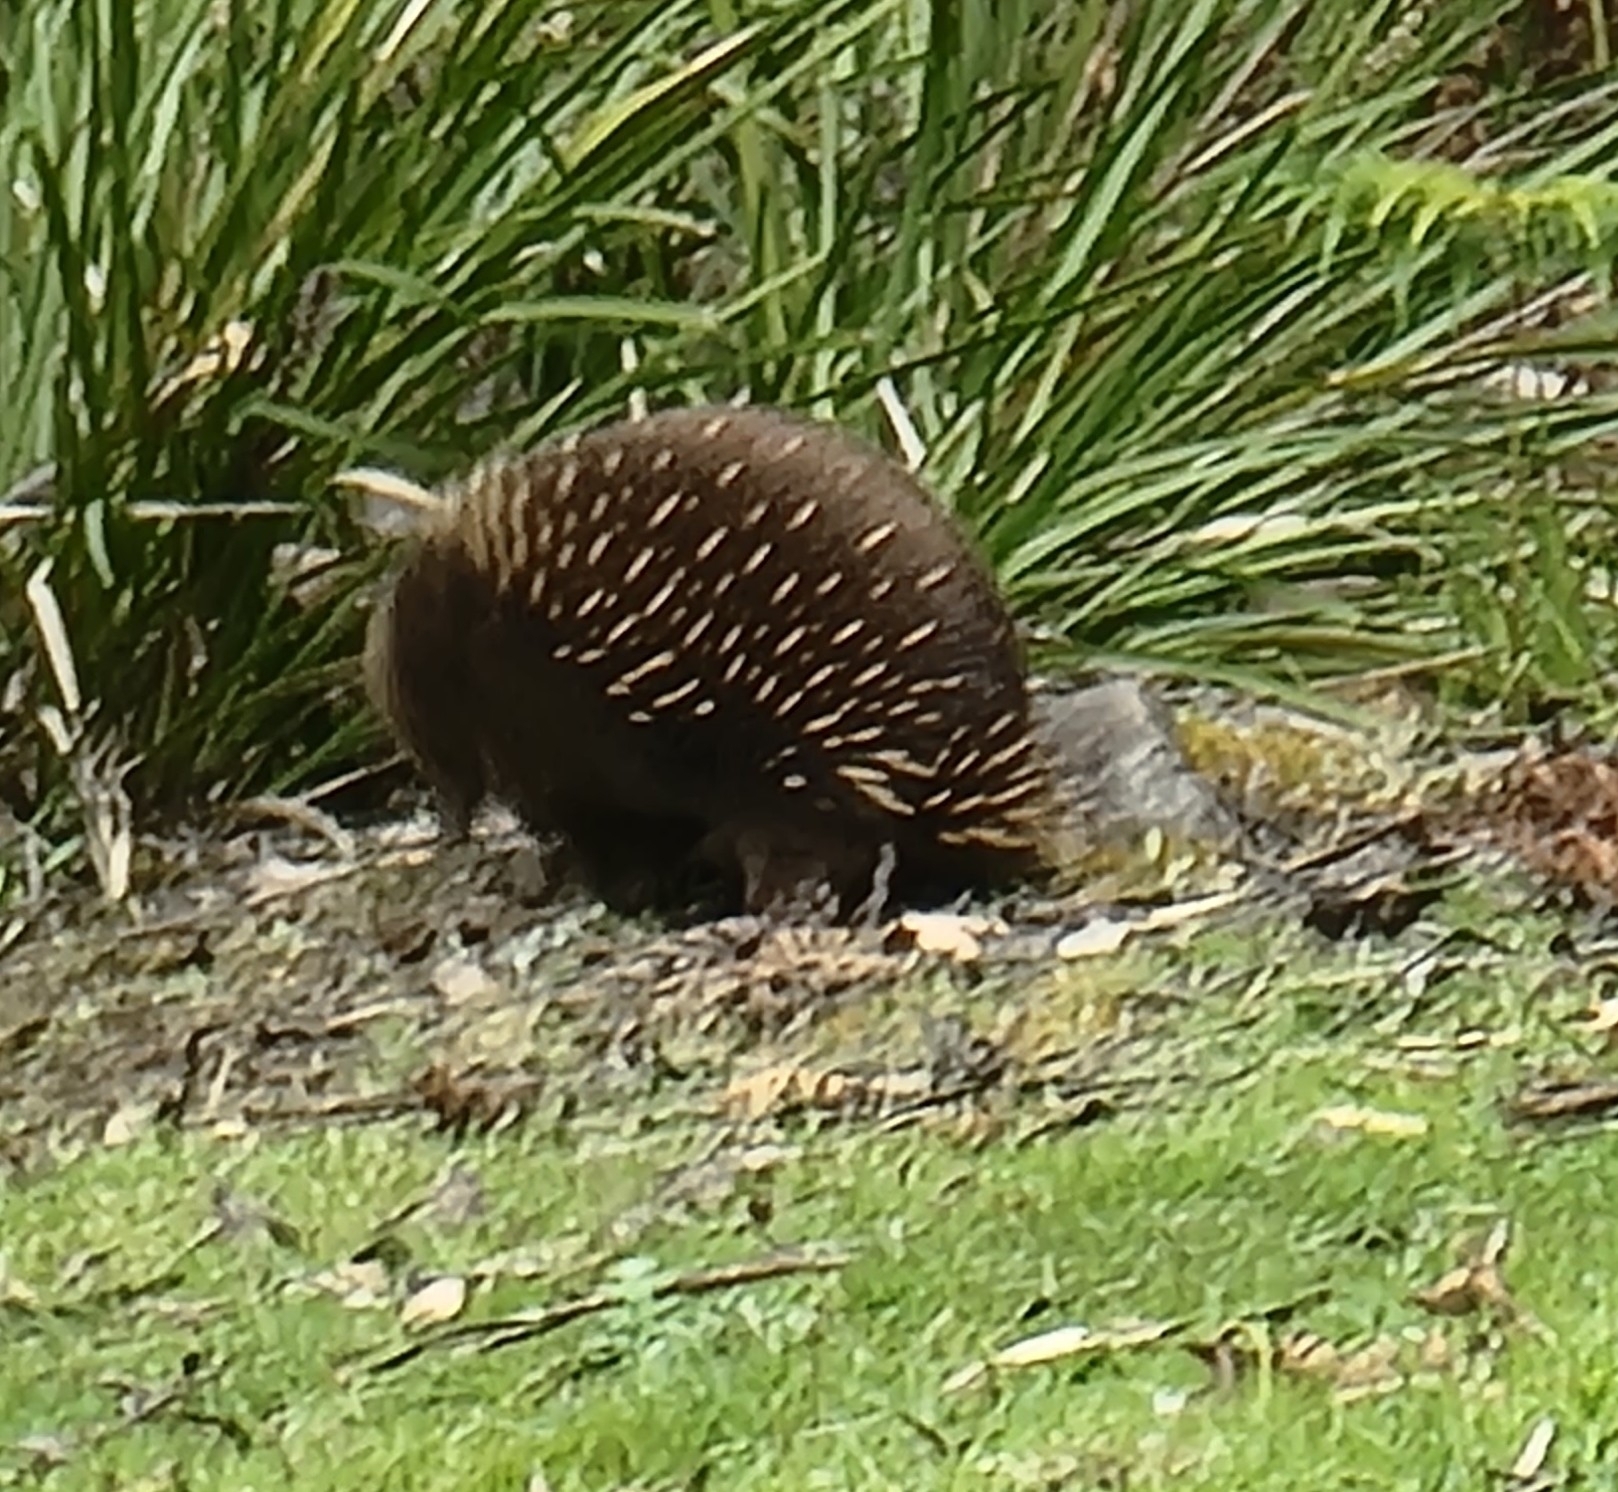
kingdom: Animalia
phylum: Chordata
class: Mammalia
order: Monotremata
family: Tachyglossidae
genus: Tachyglossus
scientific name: Tachyglossus aculeatus
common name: Short-beaked echidna
